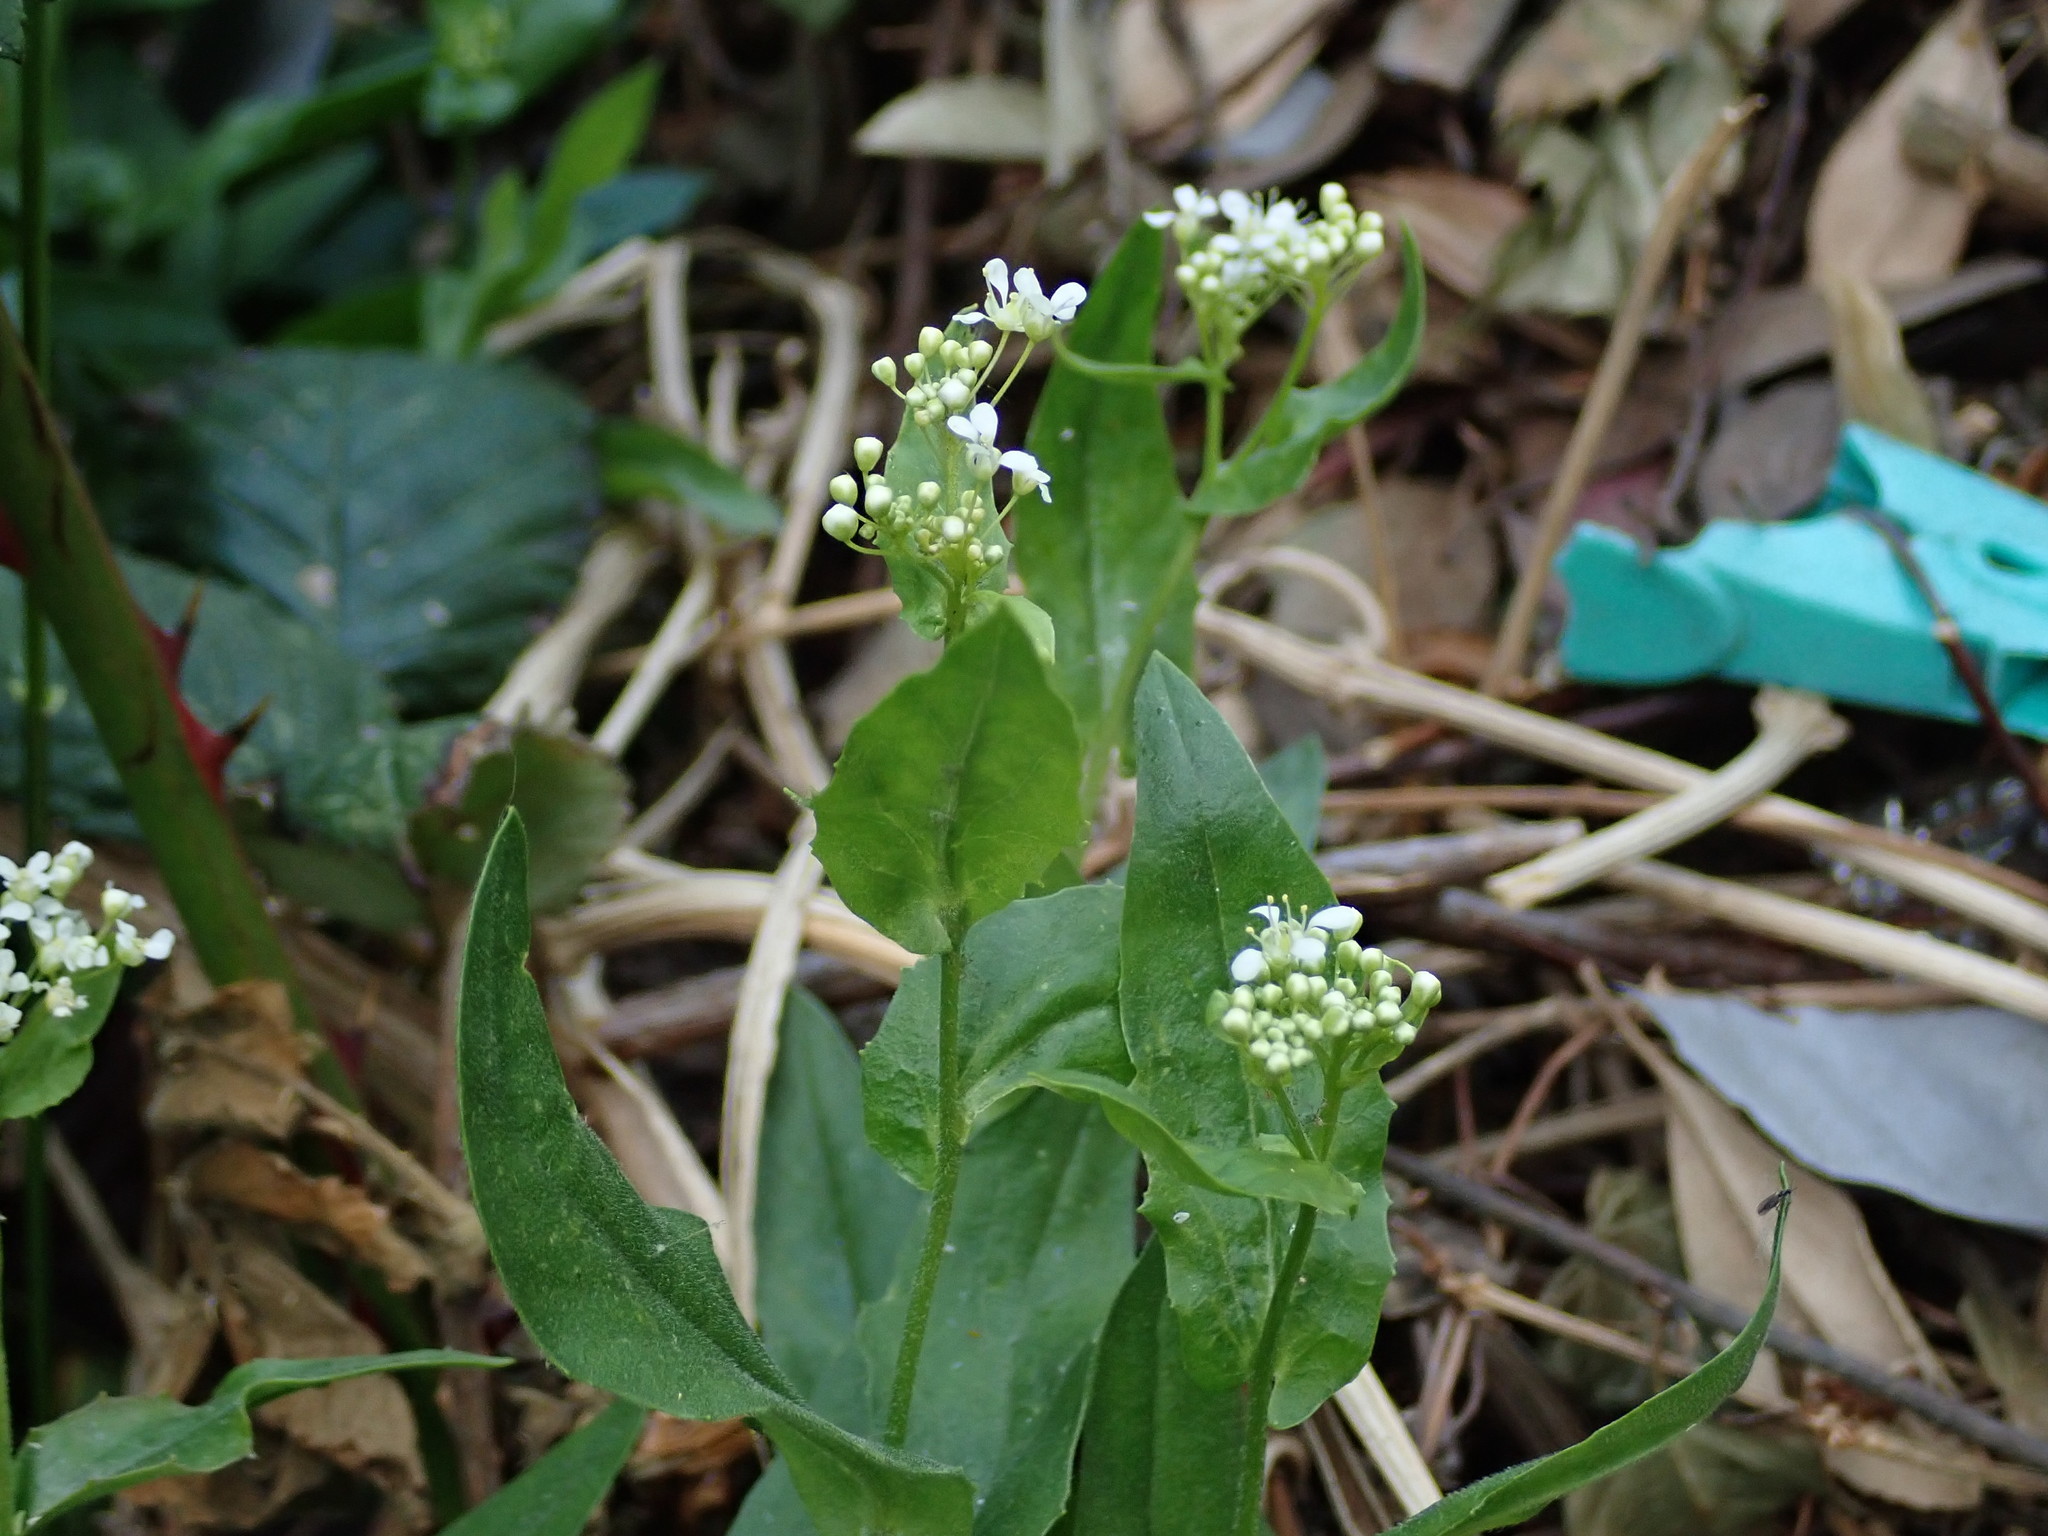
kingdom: Plantae
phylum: Tracheophyta
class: Magnoliopsida
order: Brassicales
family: Brassicaceae
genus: Lepidium
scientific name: Lepidium draba
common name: Hoary cress
